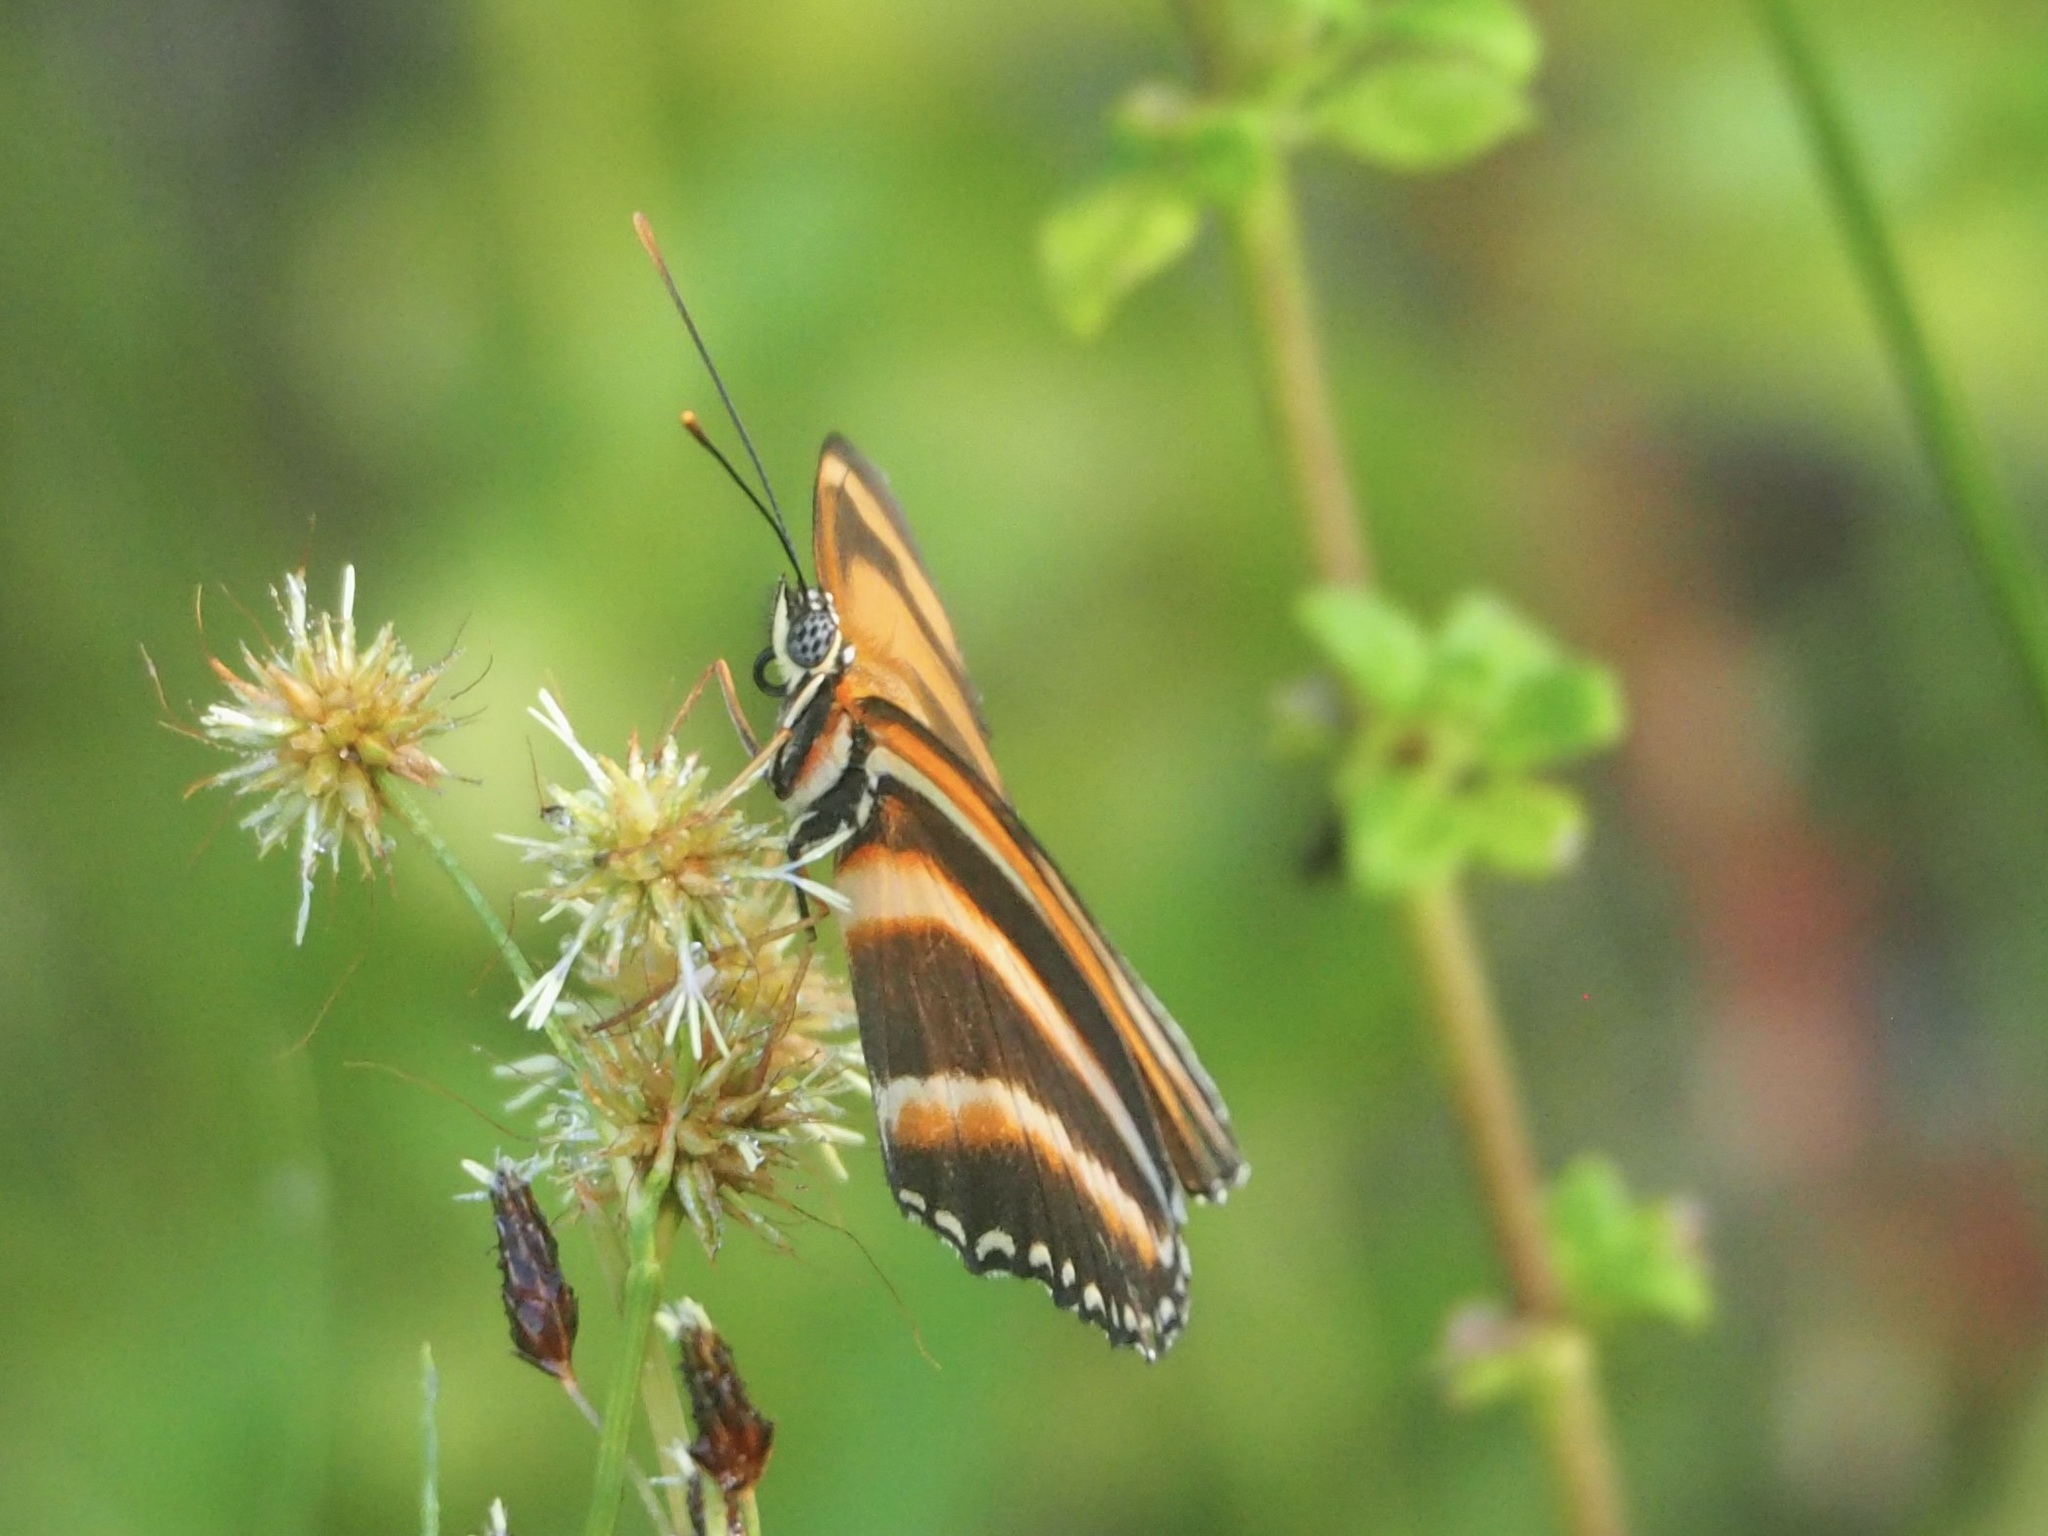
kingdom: Animalia
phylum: Arthropoda
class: Insecta
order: Lepidoptera
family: Nymphalidae
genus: Dryadula
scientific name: Dryadula phaetusa
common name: Banded orange heliconian
